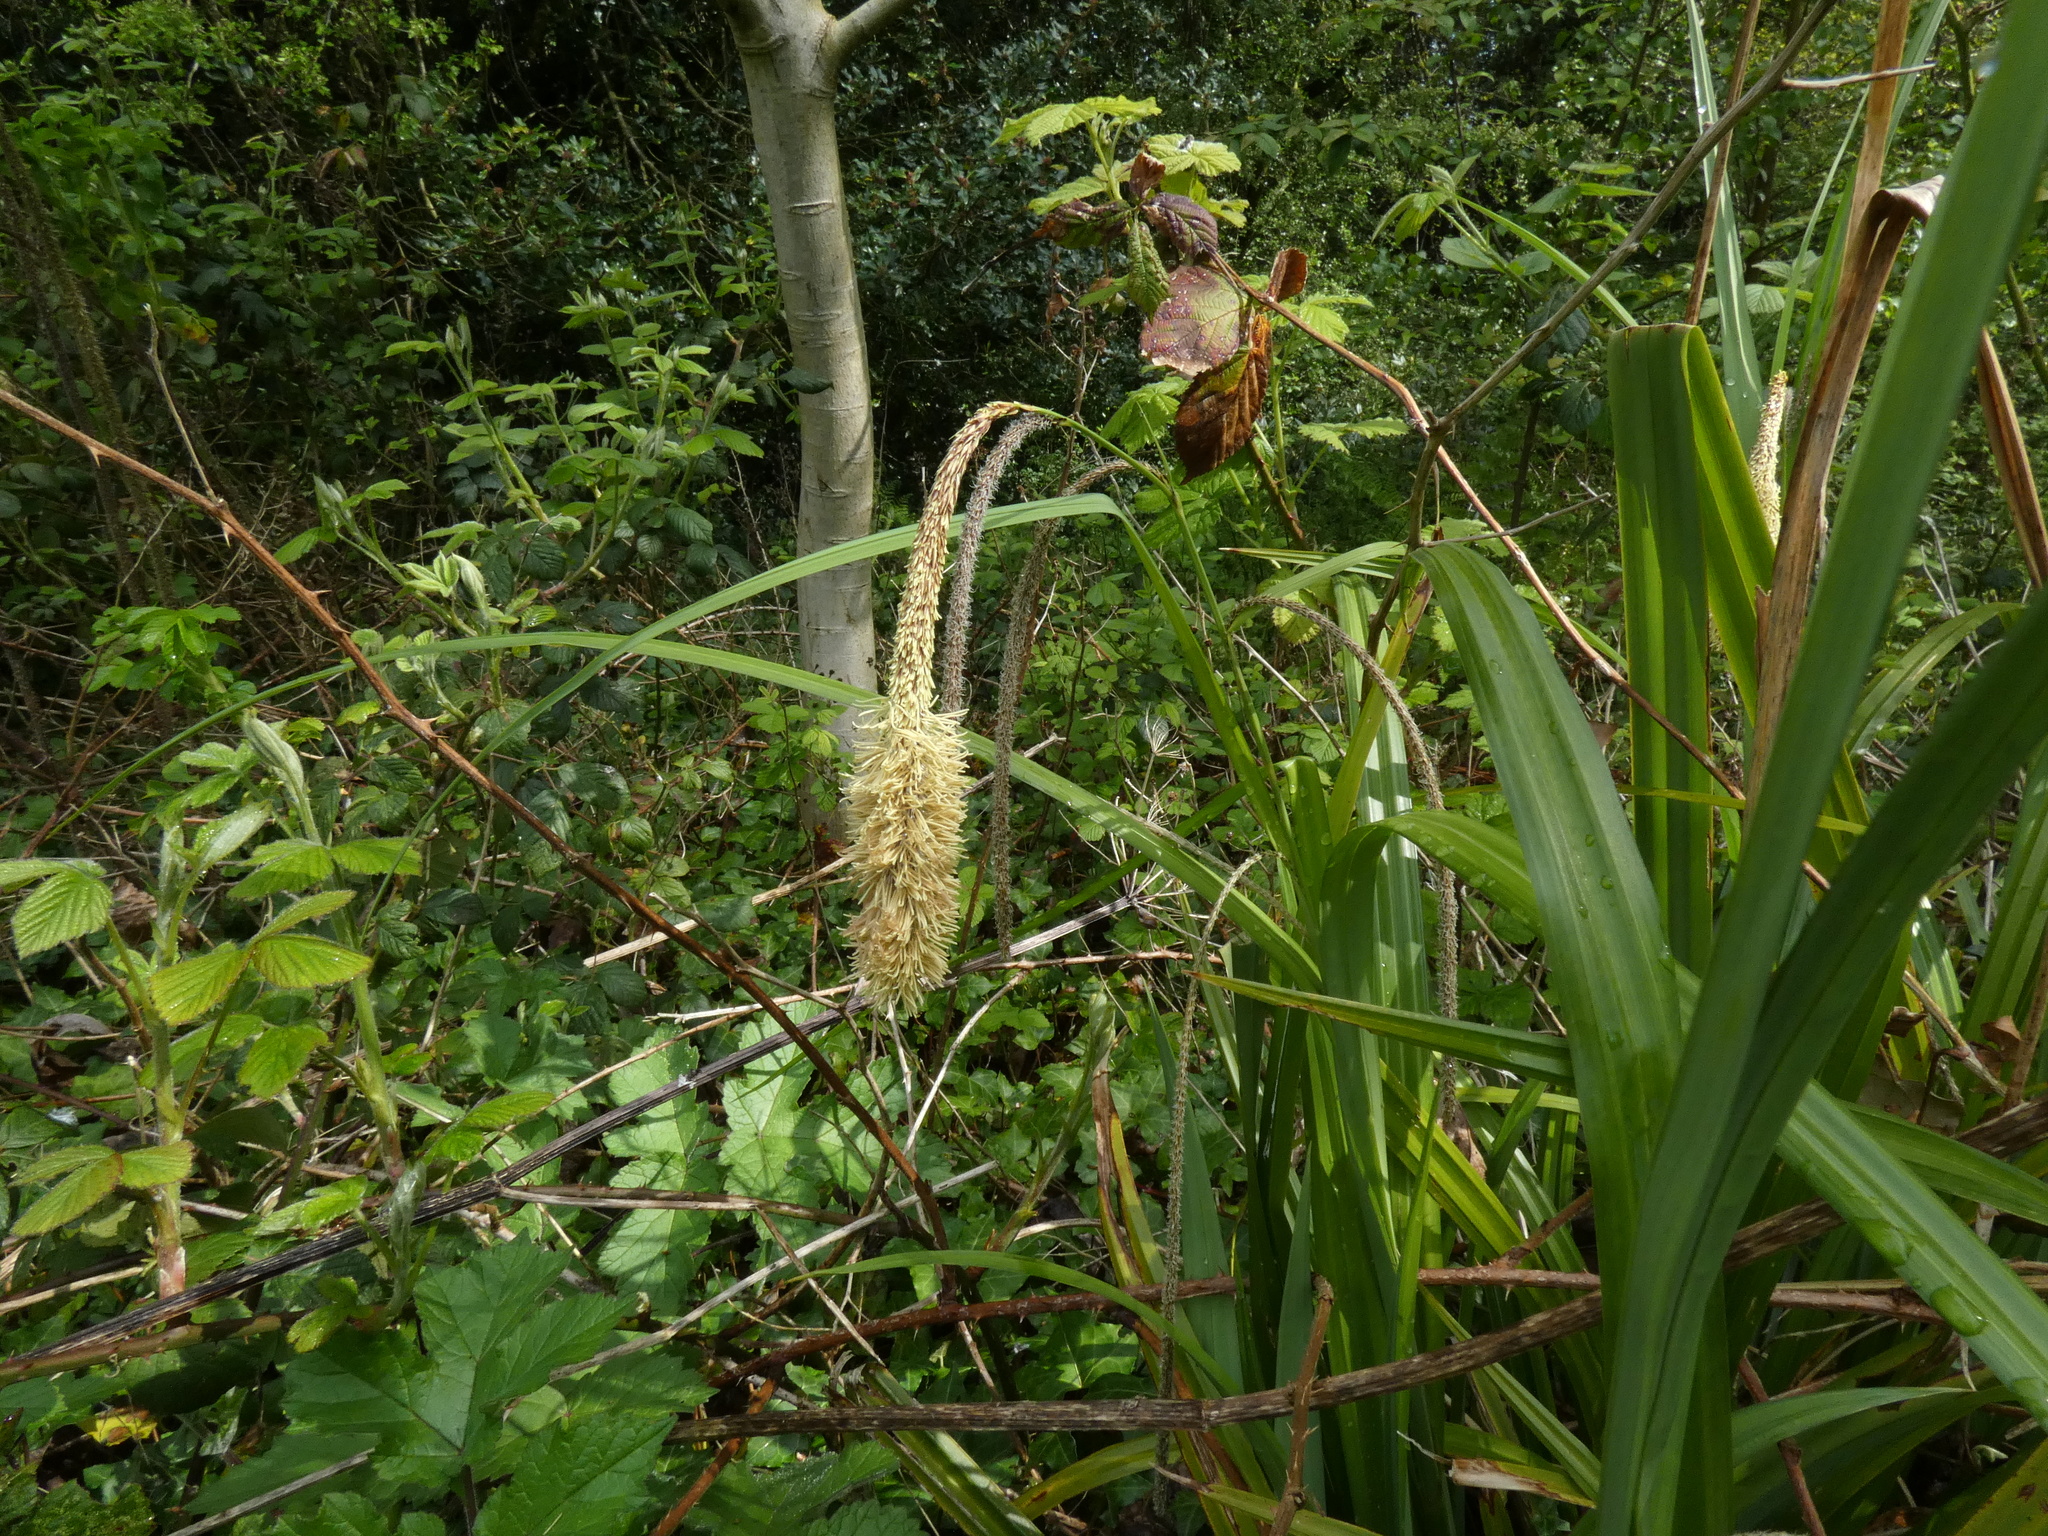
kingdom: Plantae
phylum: Tracheophyta
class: Liliopsida
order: Poales
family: Cyperaceae
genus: Carex
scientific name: Carex pendula
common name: Pendulous sedge
